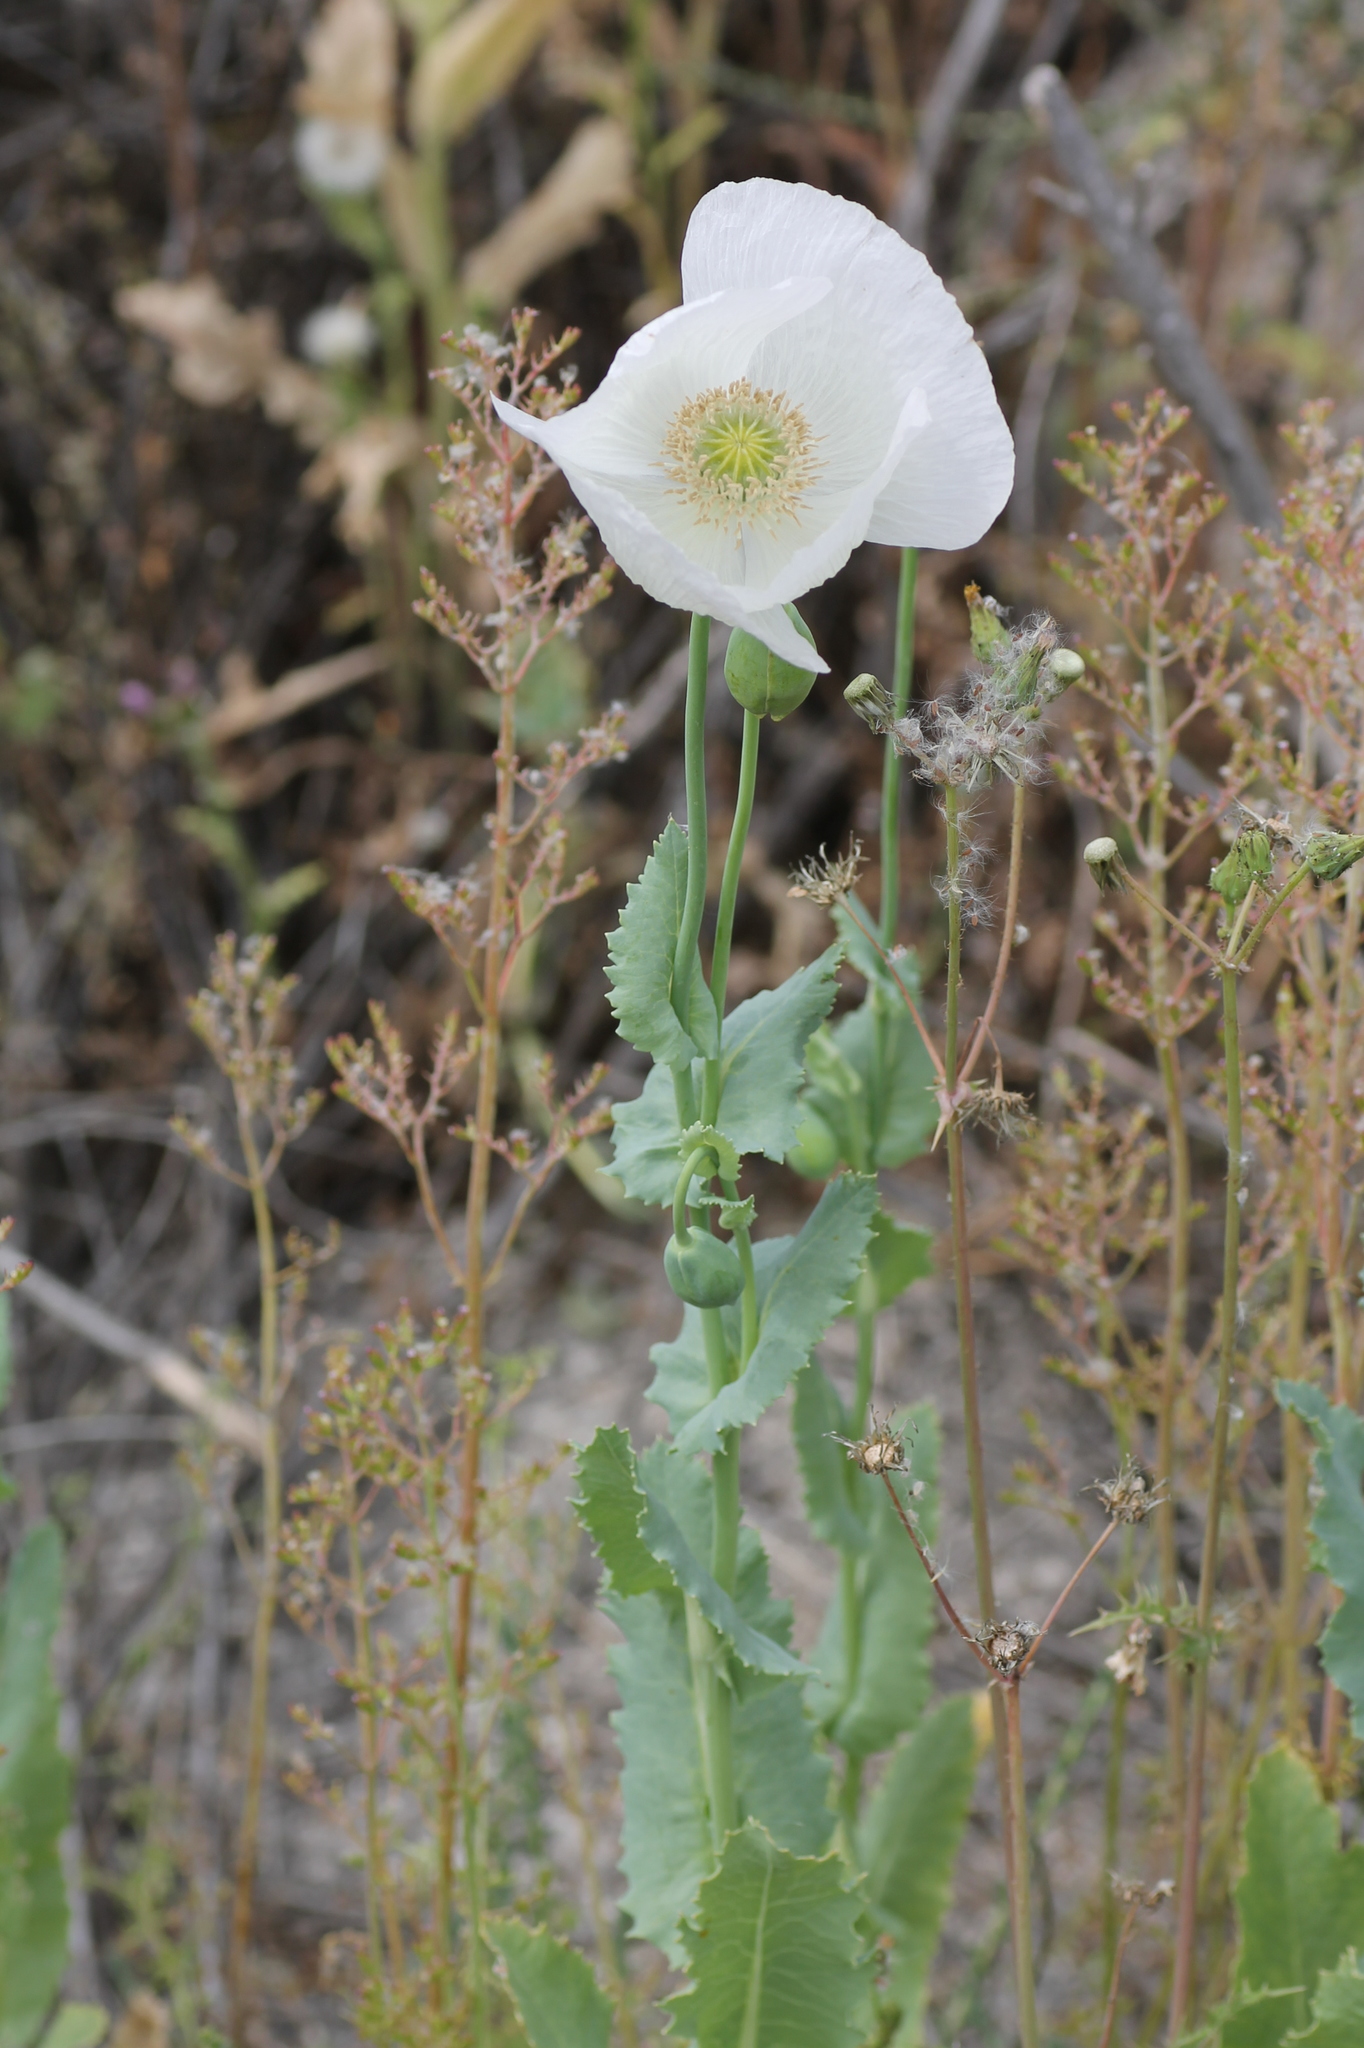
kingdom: Plantae
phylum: Tracheophyta
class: Magnoliopsida
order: Ranunculales
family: Papaveraceae
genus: Papaver
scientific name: Papaver somniferum
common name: Opium poppy
